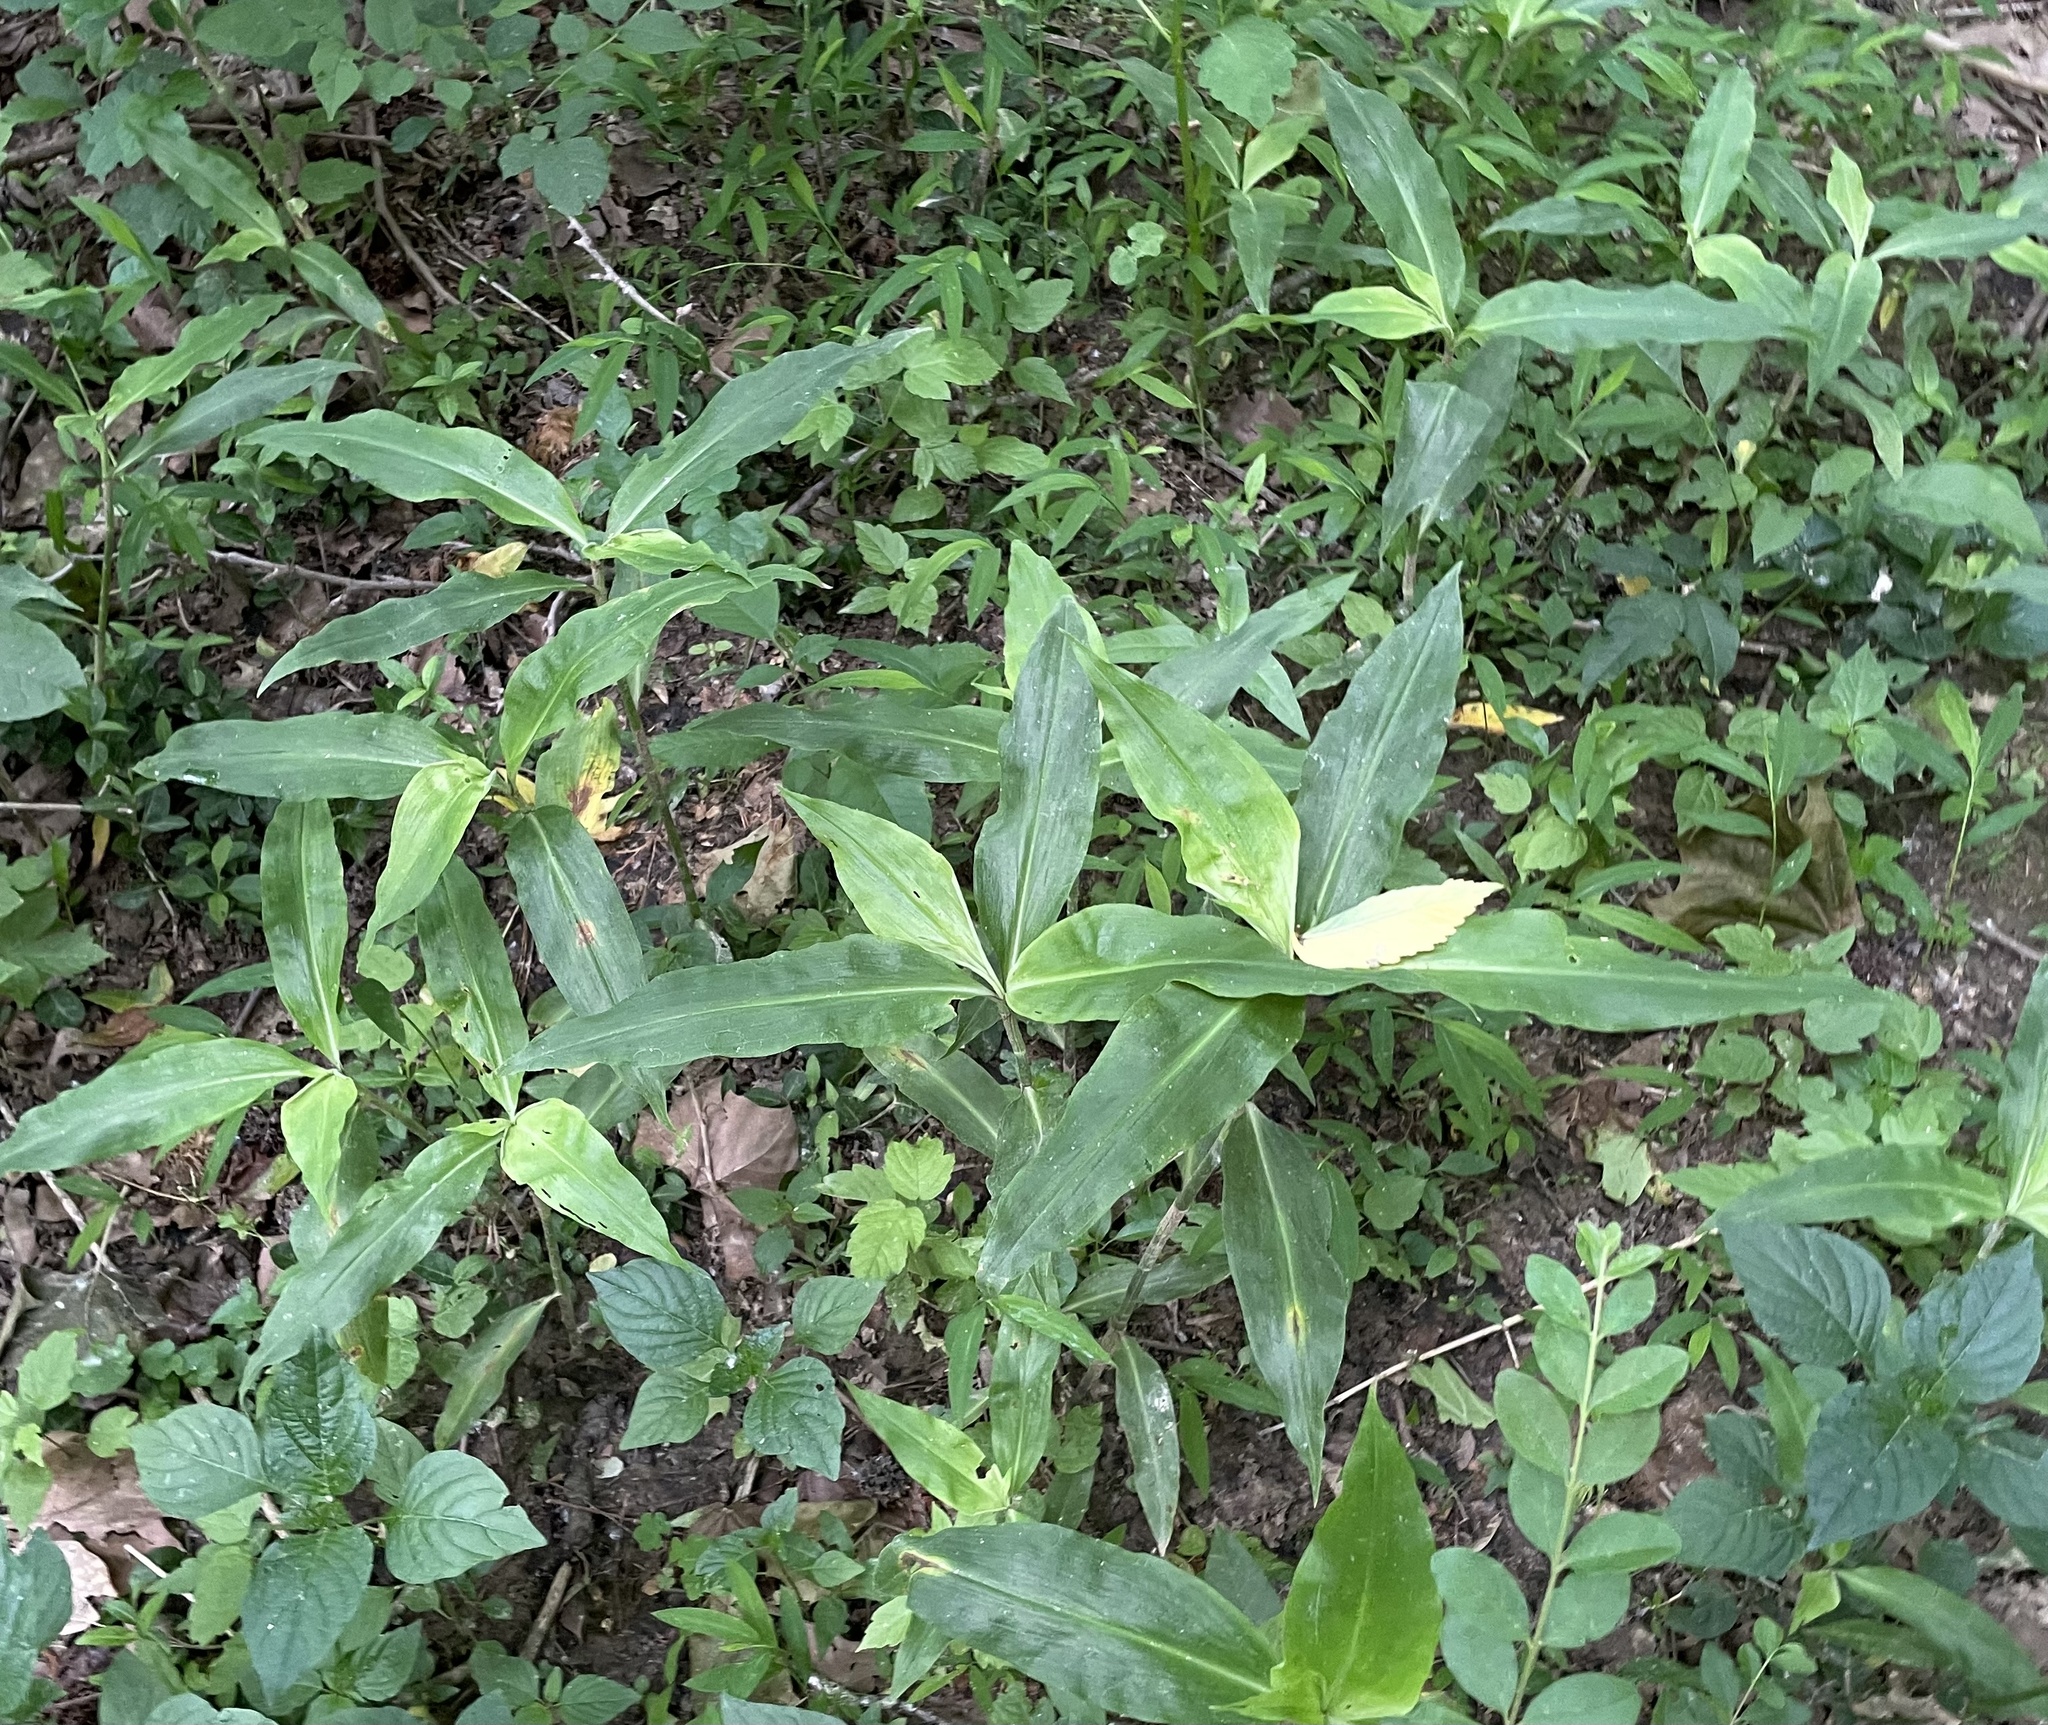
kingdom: Plantae
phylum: Tracheophyta
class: Liliopsida
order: Commelinales
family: Commelinaceae
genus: Commelina
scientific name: Commelina virginica
